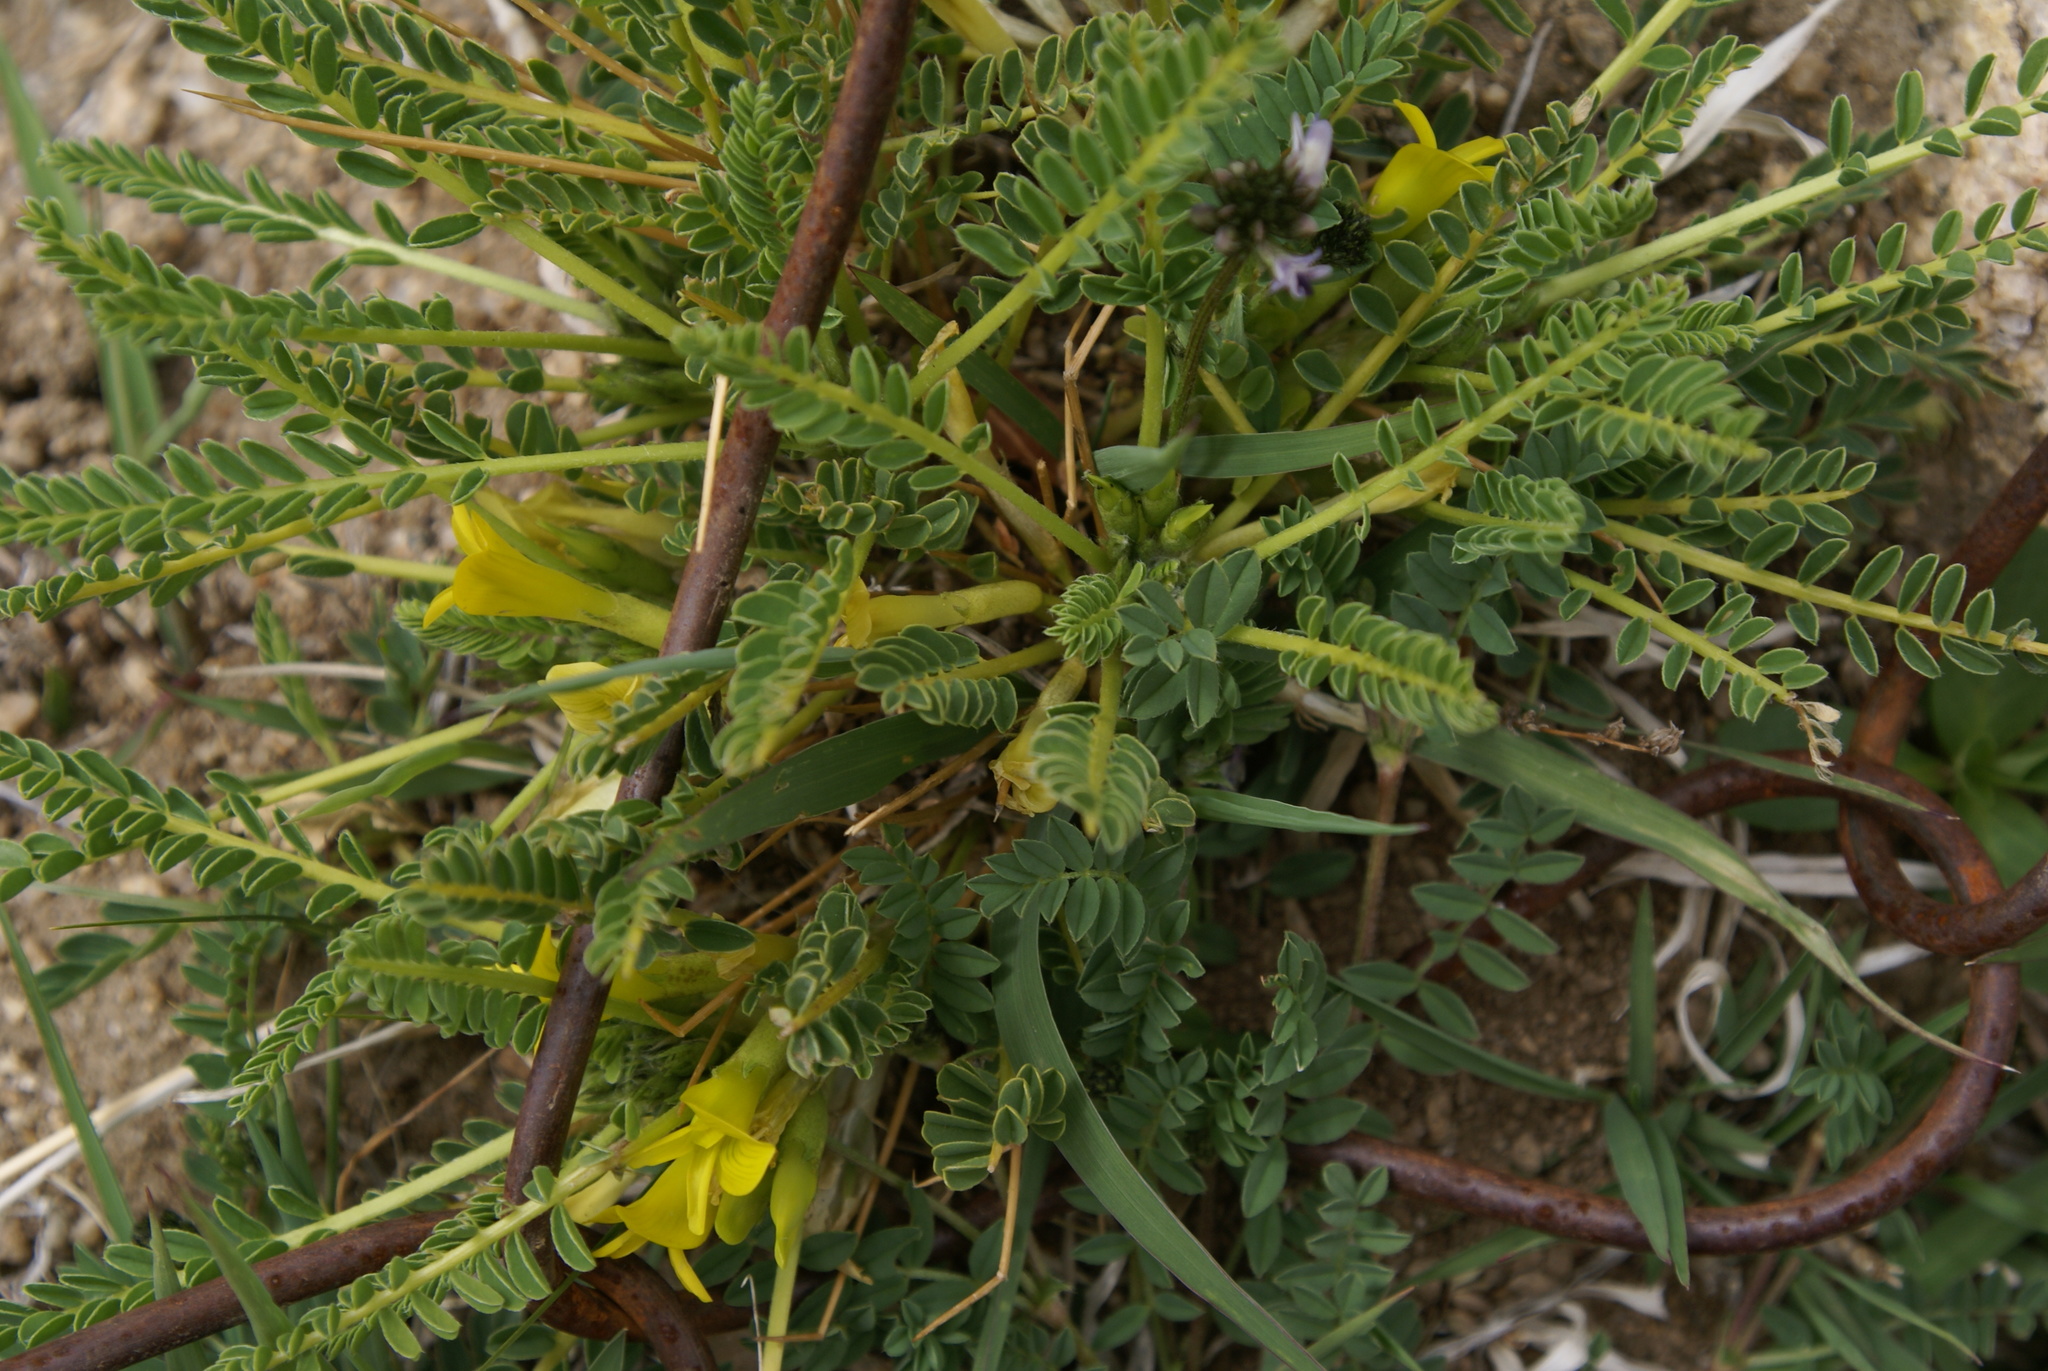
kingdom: Plantae
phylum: Tracheophyta
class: Magnoliopsida
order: Fabales
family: Fabaceae
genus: Astragalus
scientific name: Astragalus oplites
